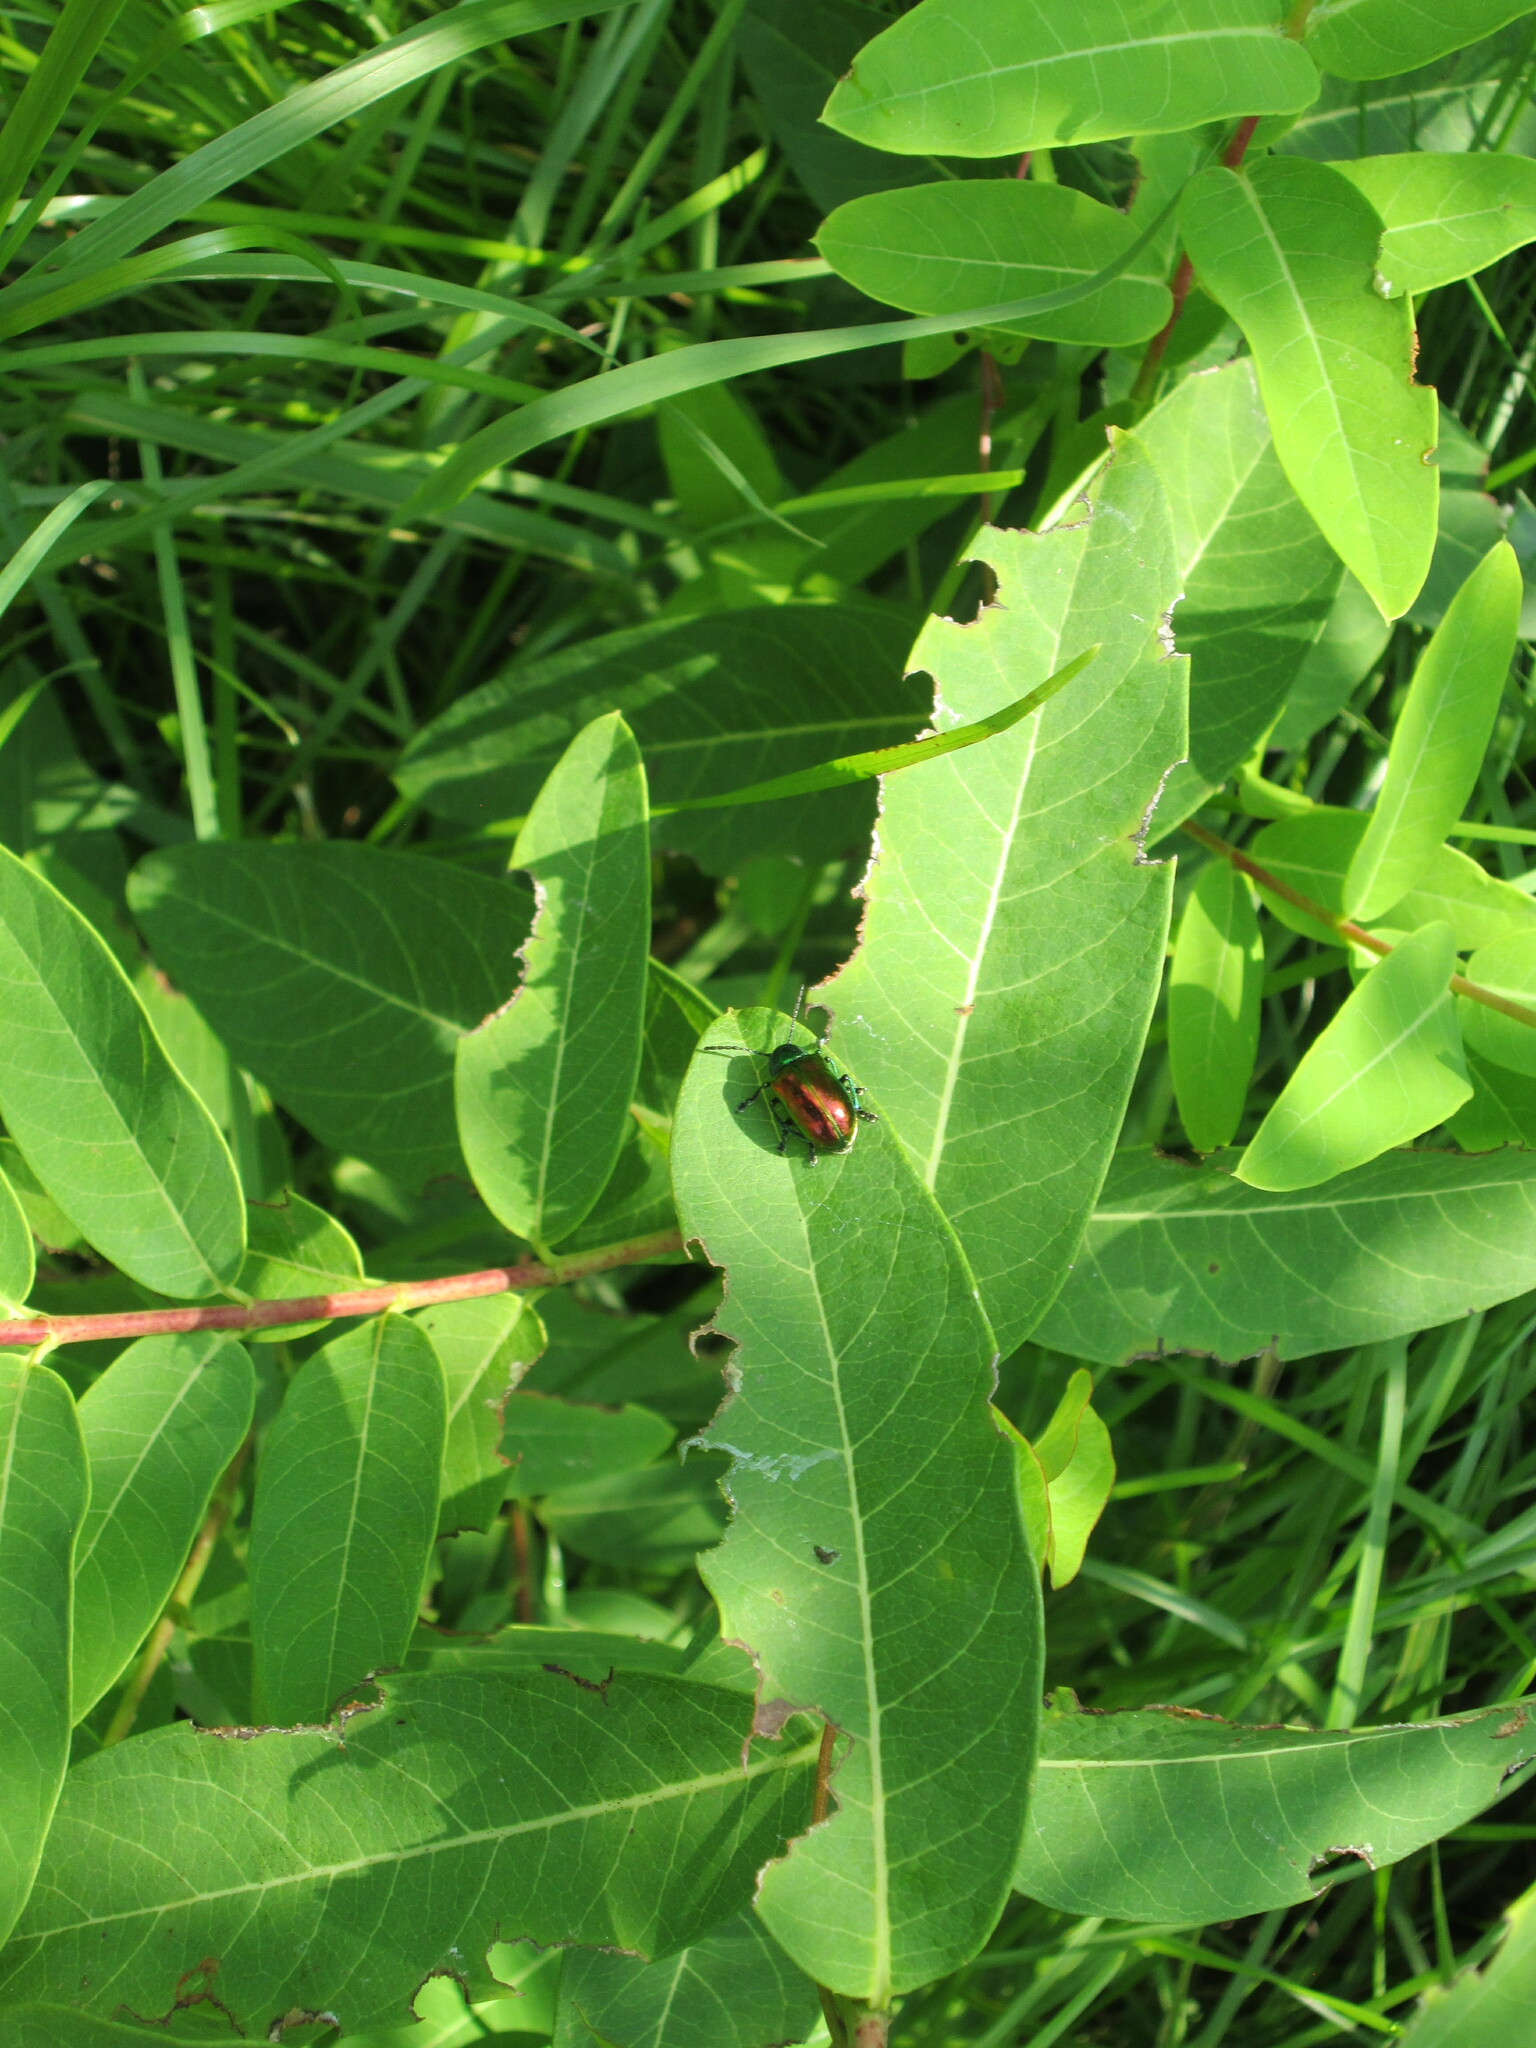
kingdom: Animalia
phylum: Arthropoda
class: Insecta
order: Coleoptera
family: Chrysomelidae
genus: Chrysochus
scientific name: Chrysochus auratus
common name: Dogbane leaf beetle
